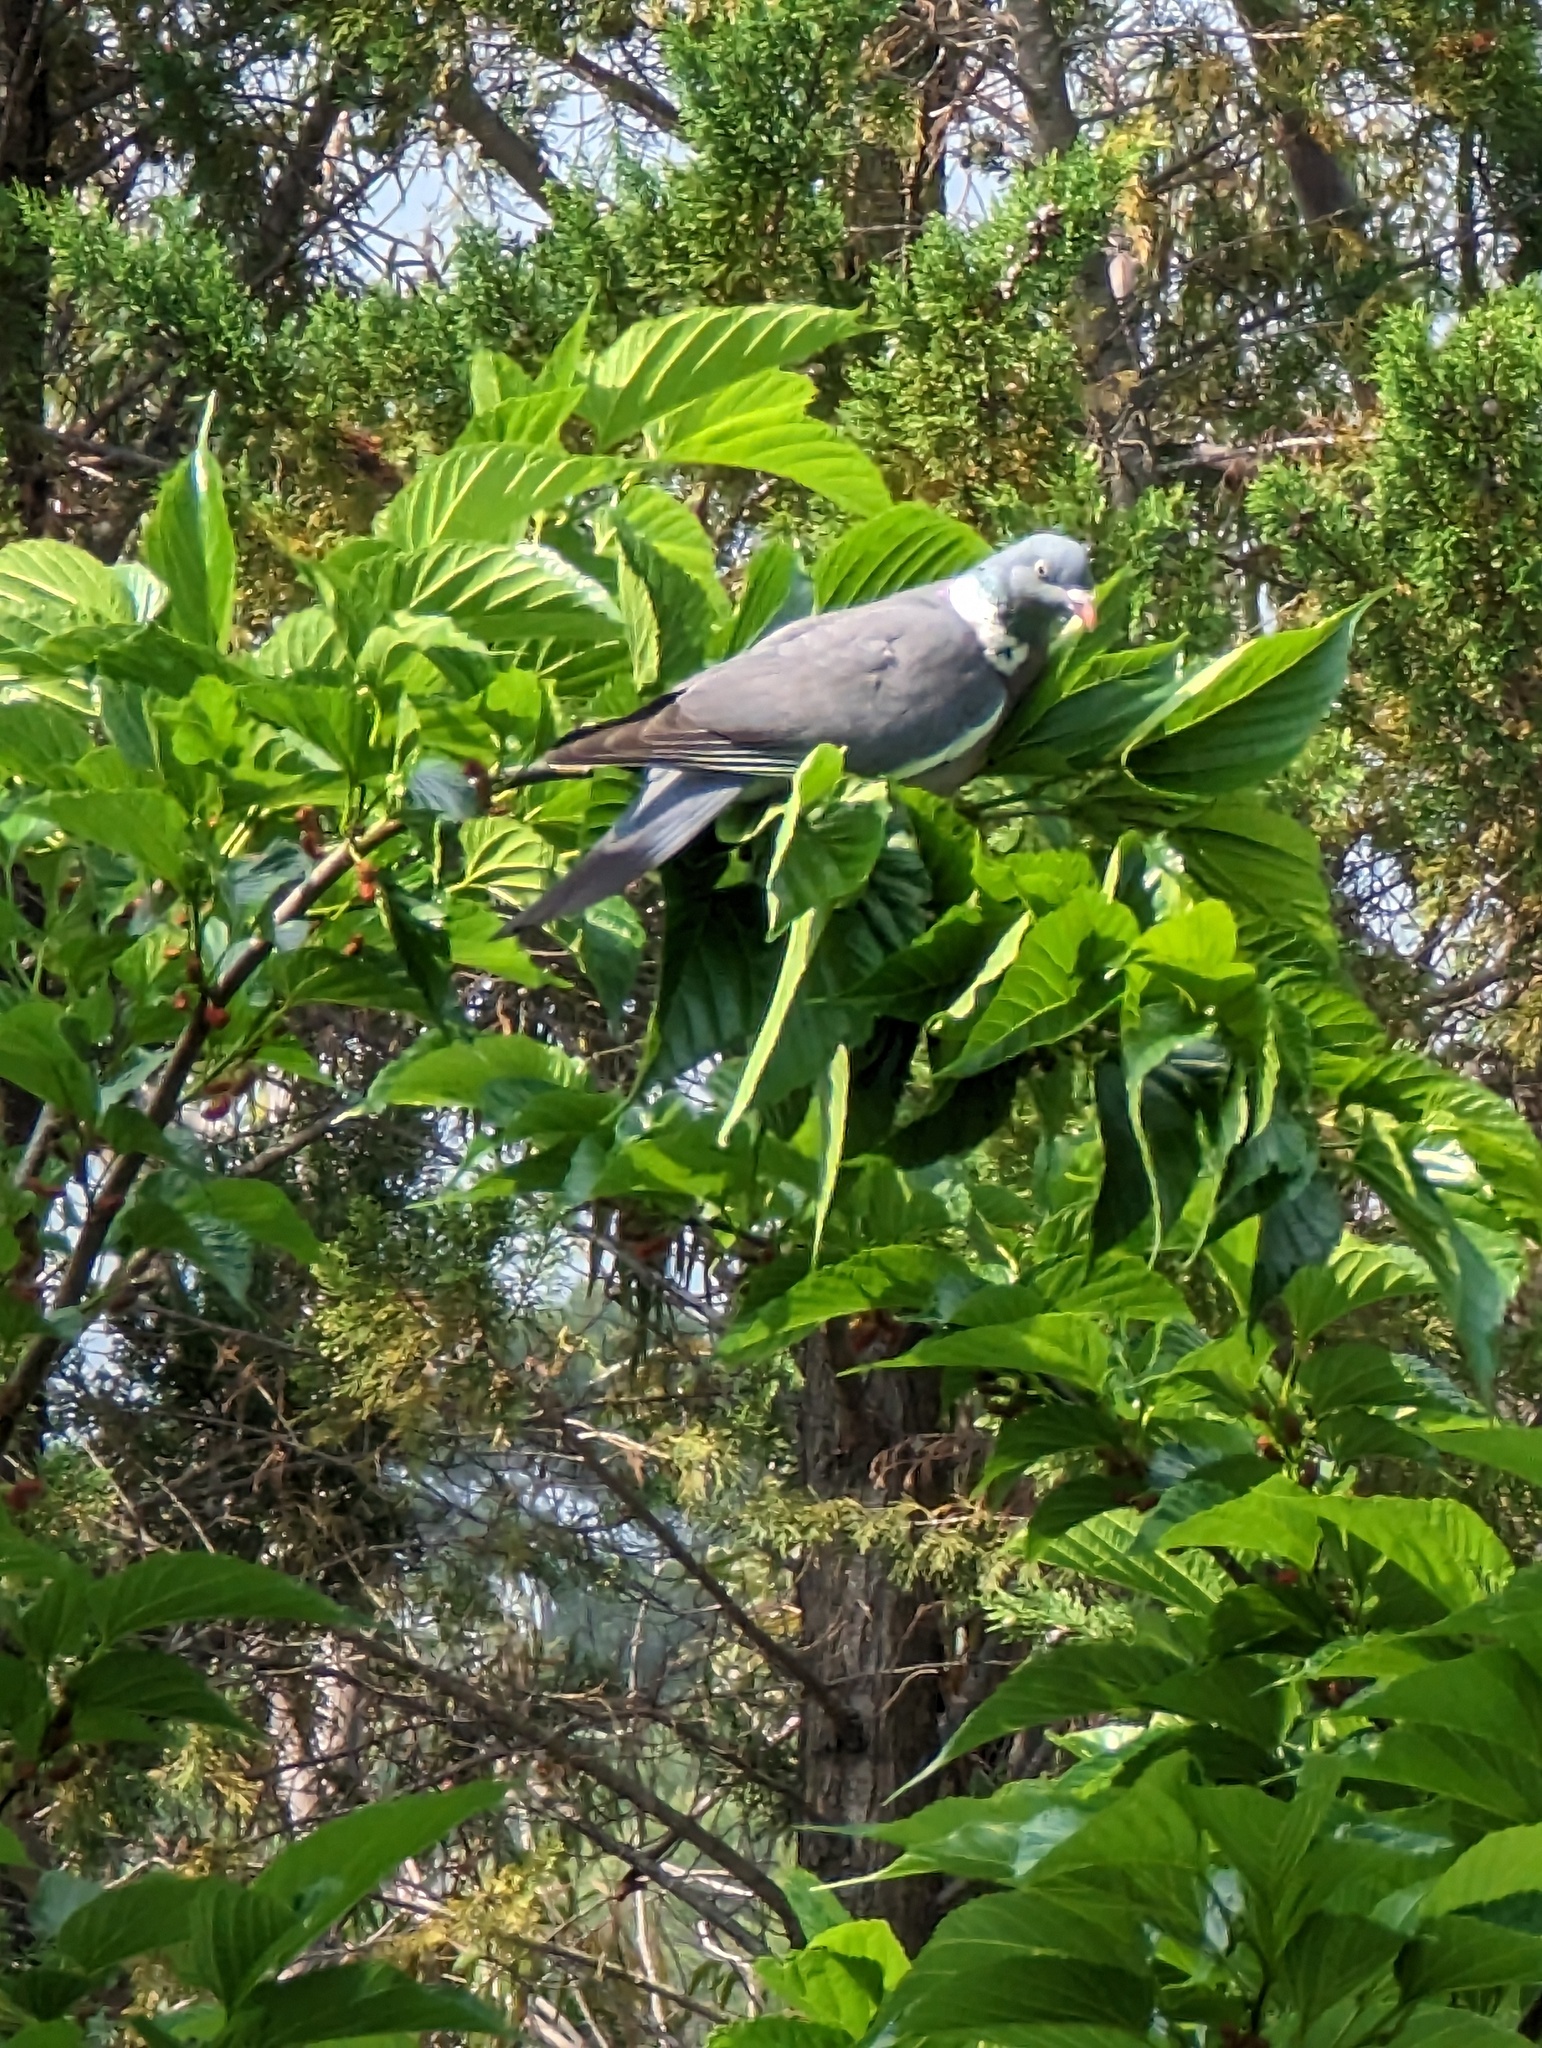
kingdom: Animalia
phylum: Chordata
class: Aves
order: Columbiformes
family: Columbidae
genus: Columba
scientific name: Columba palumbus
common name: Common wood pigeon
